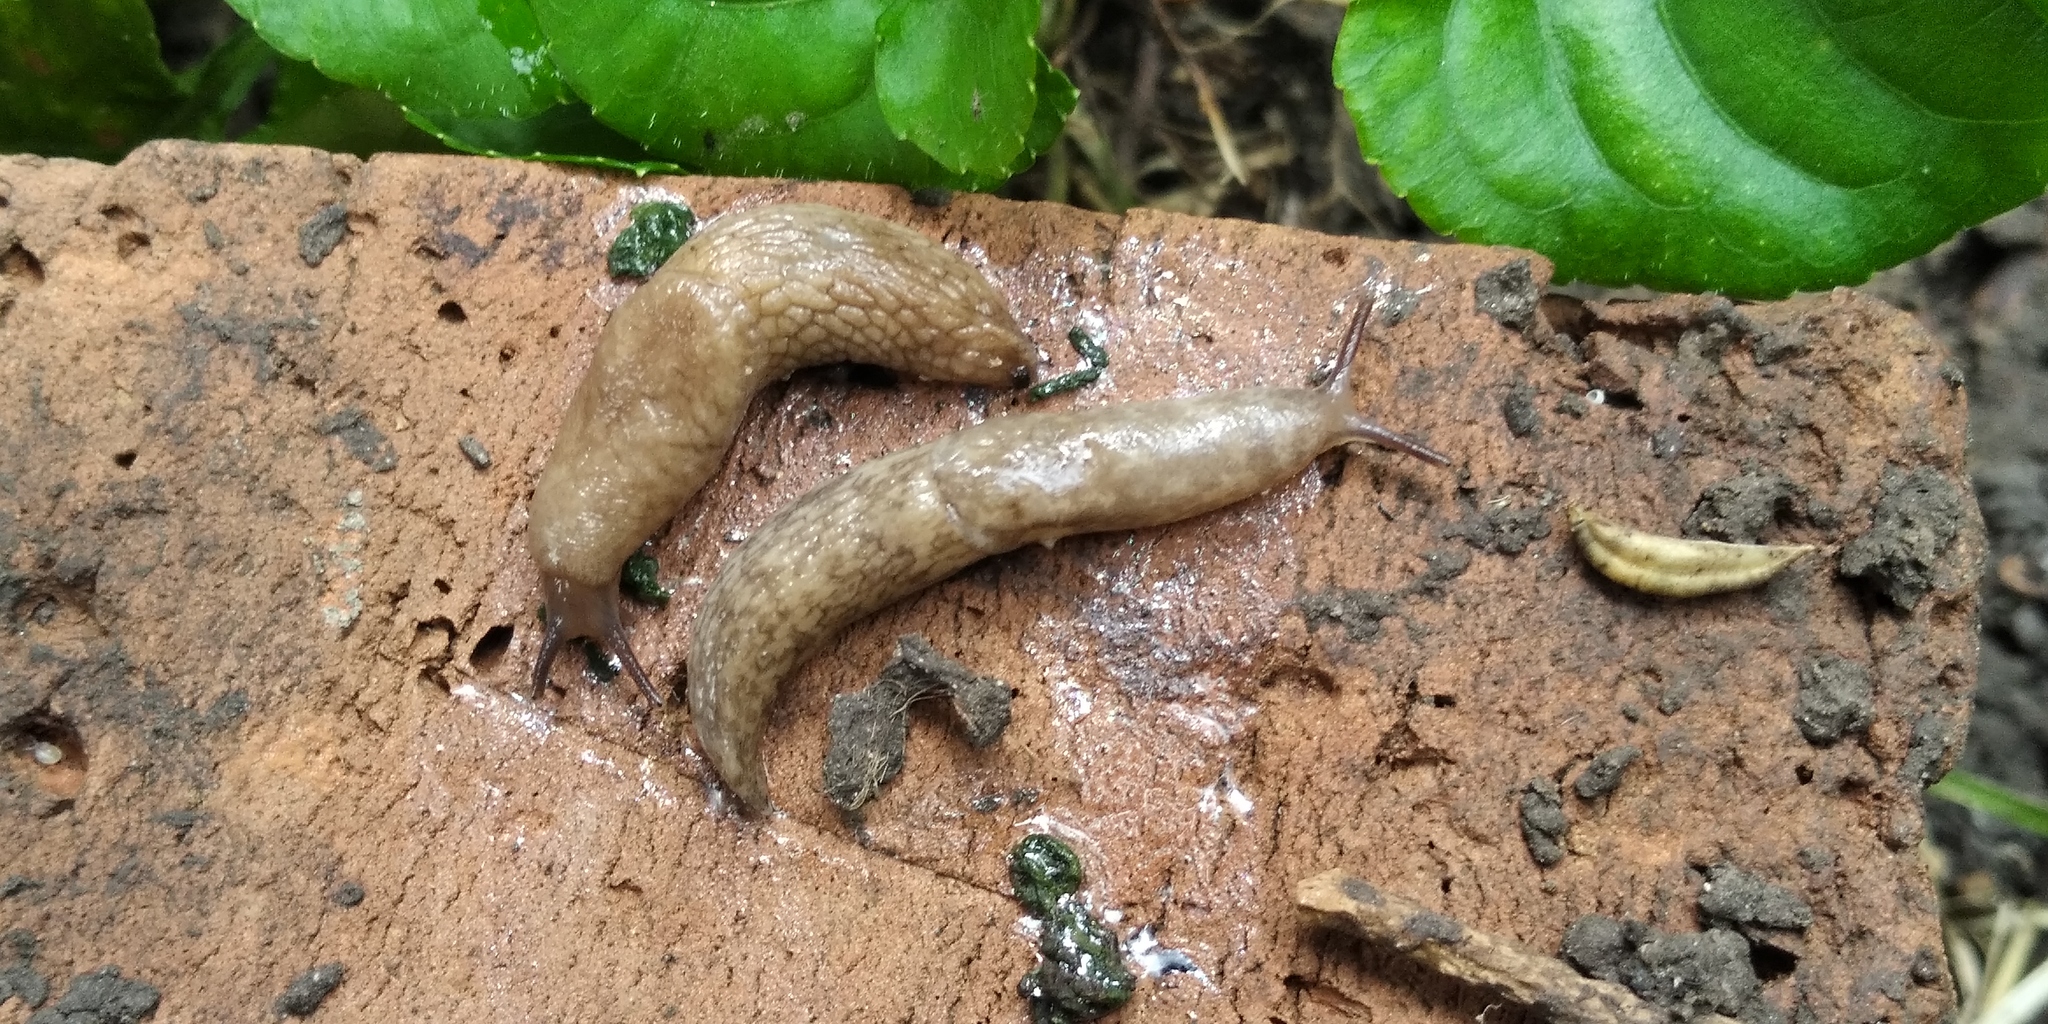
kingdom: Animalia
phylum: Mollusca
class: Gastropoda
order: Stylommatophora
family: Agriolimacidae
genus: Deroceras
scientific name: Deroceras reticulatum
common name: Gray field slug
